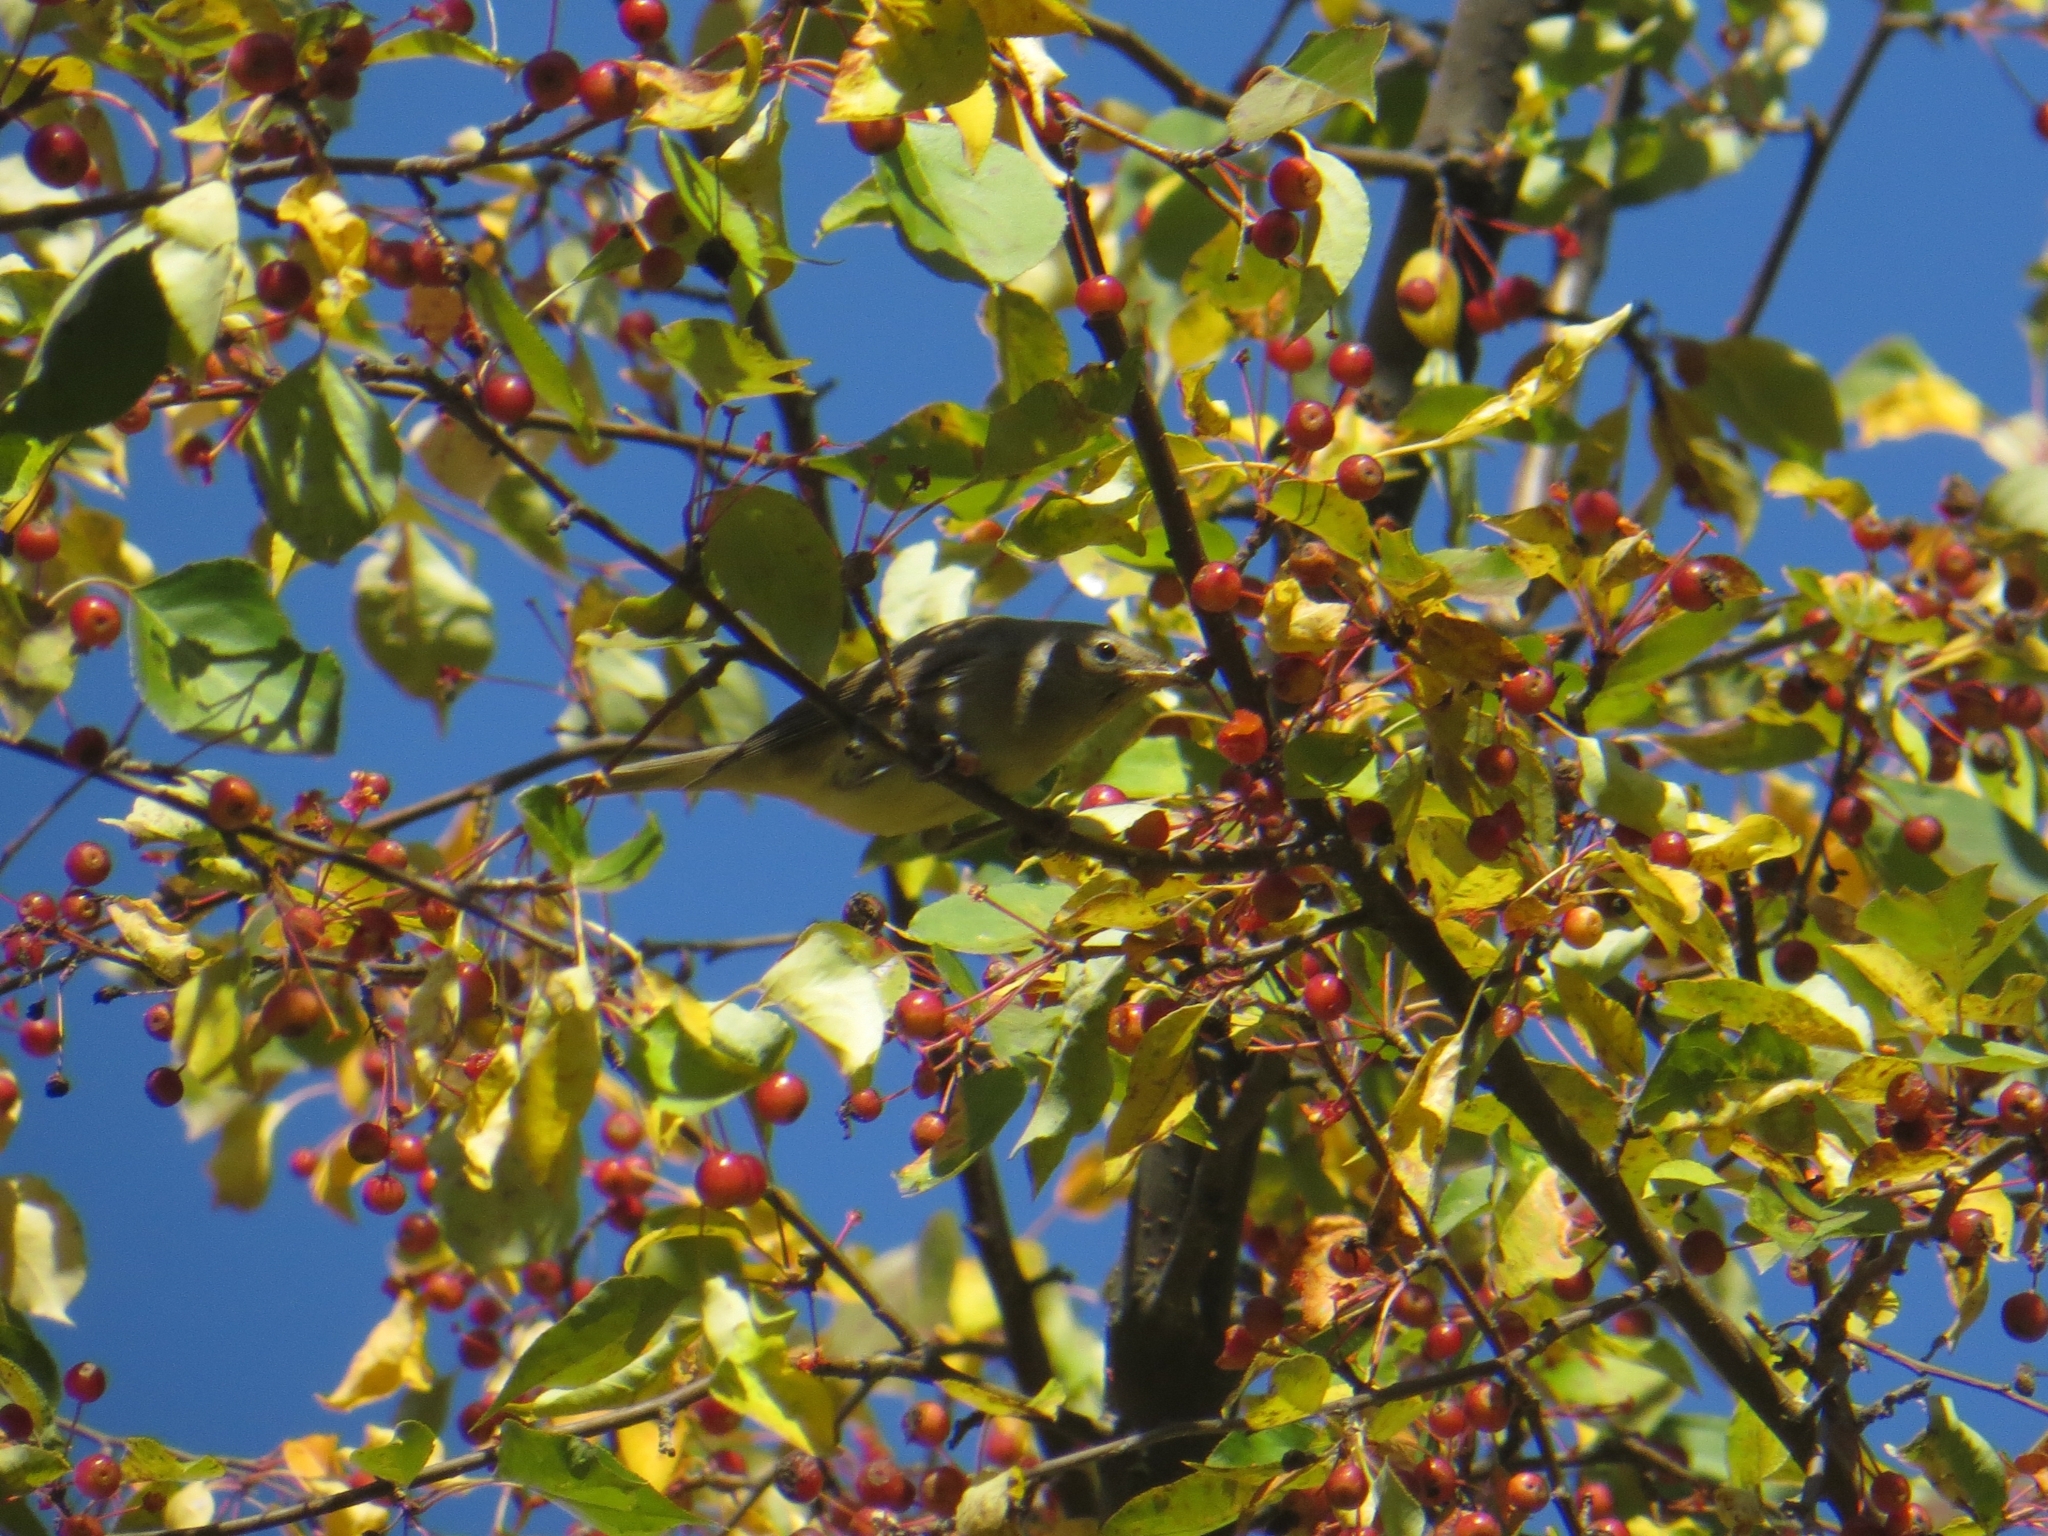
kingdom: Animalia
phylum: Chordata
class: Aves
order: Passeriformes
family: Sylviidae
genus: Sylvia
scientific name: Sylvia borin
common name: Garden warbler
